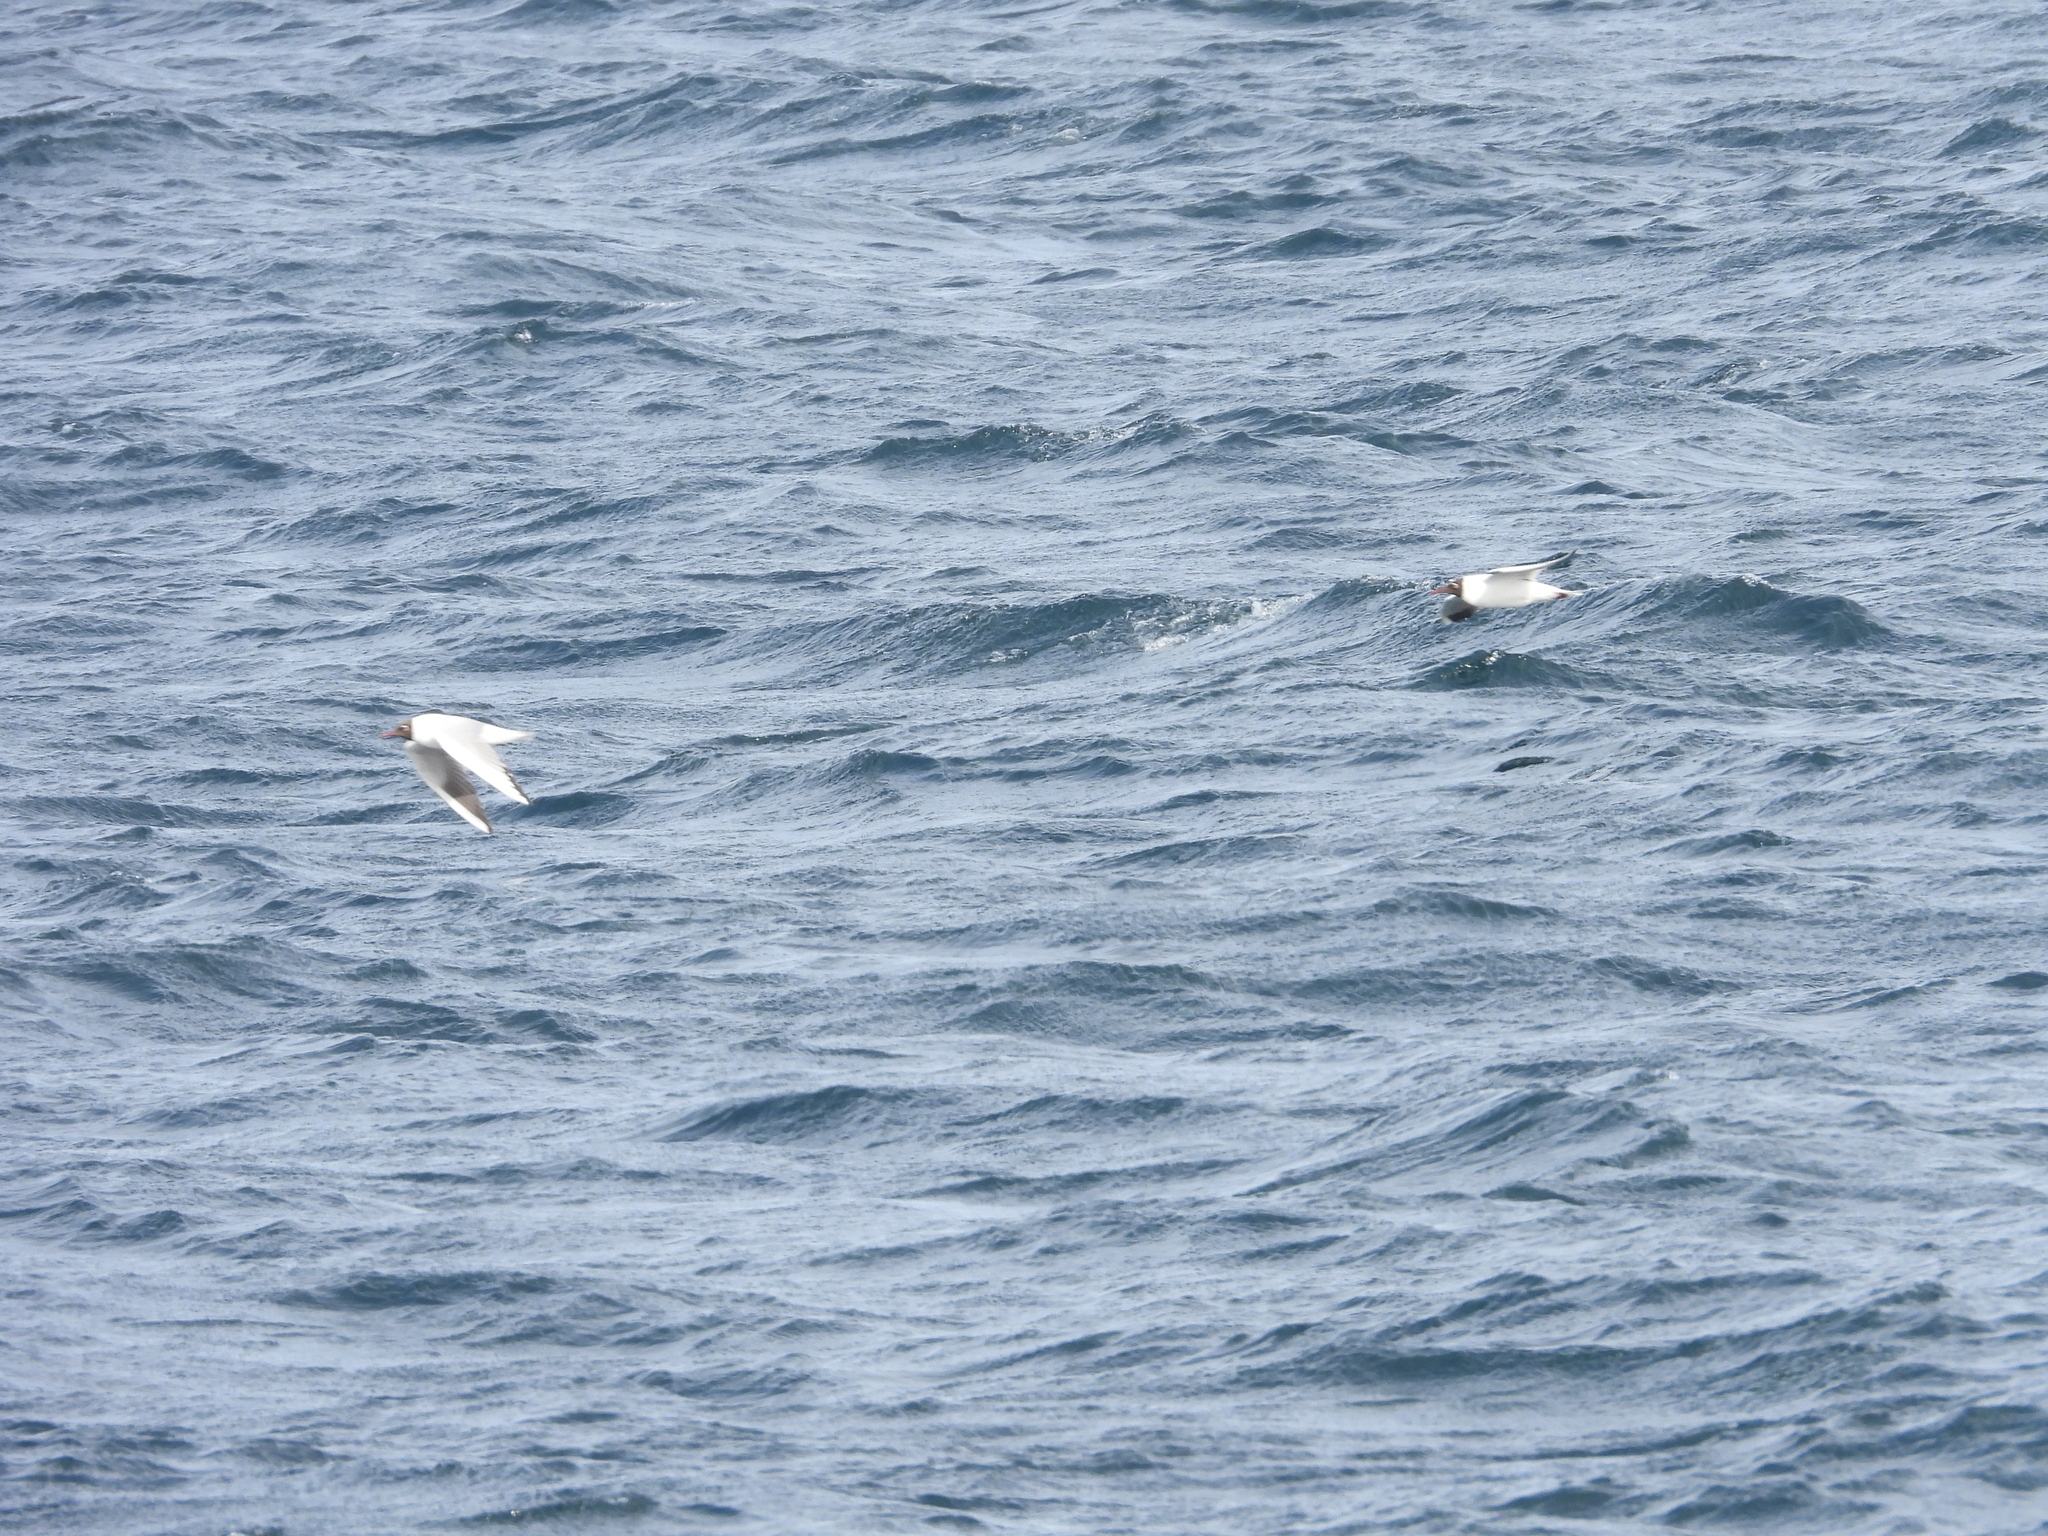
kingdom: Animalia
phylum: Chordata
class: Aves
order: Charadriiformes
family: Laridae
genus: Chroicocephalus
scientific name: Chroicocephalus ridibundus
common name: Black-headed gull
